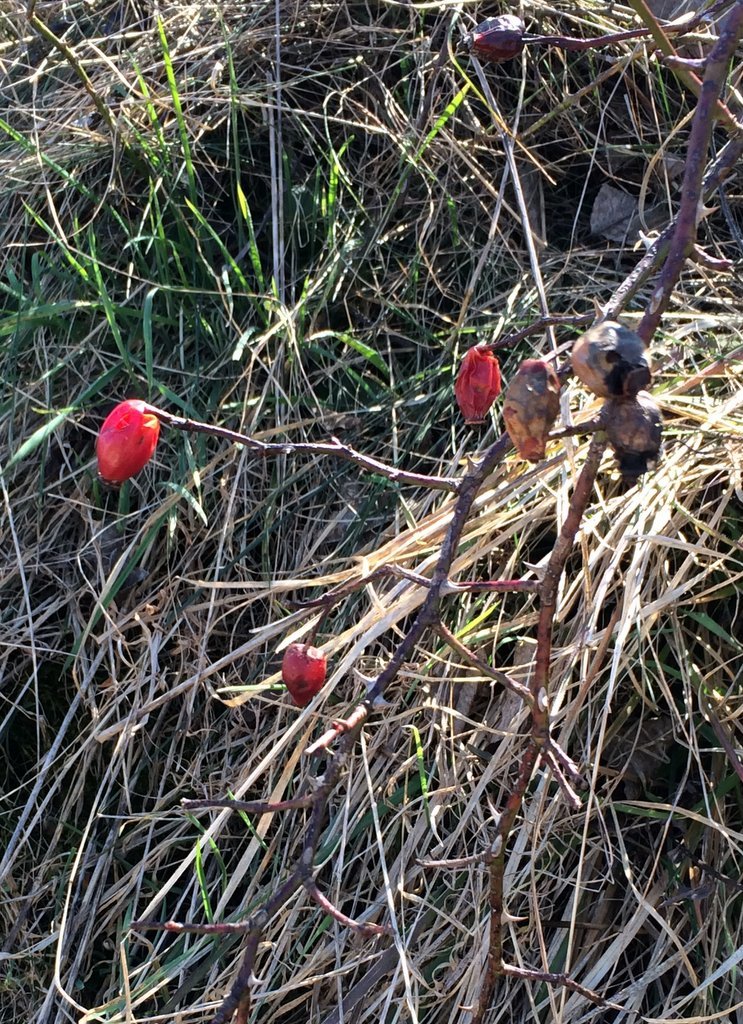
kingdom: Plantae
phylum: Tracheophyta
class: Magnoliopsida
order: Rosales
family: Rosaceae
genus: Rosa
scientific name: Rosa canina
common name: Dog rose
